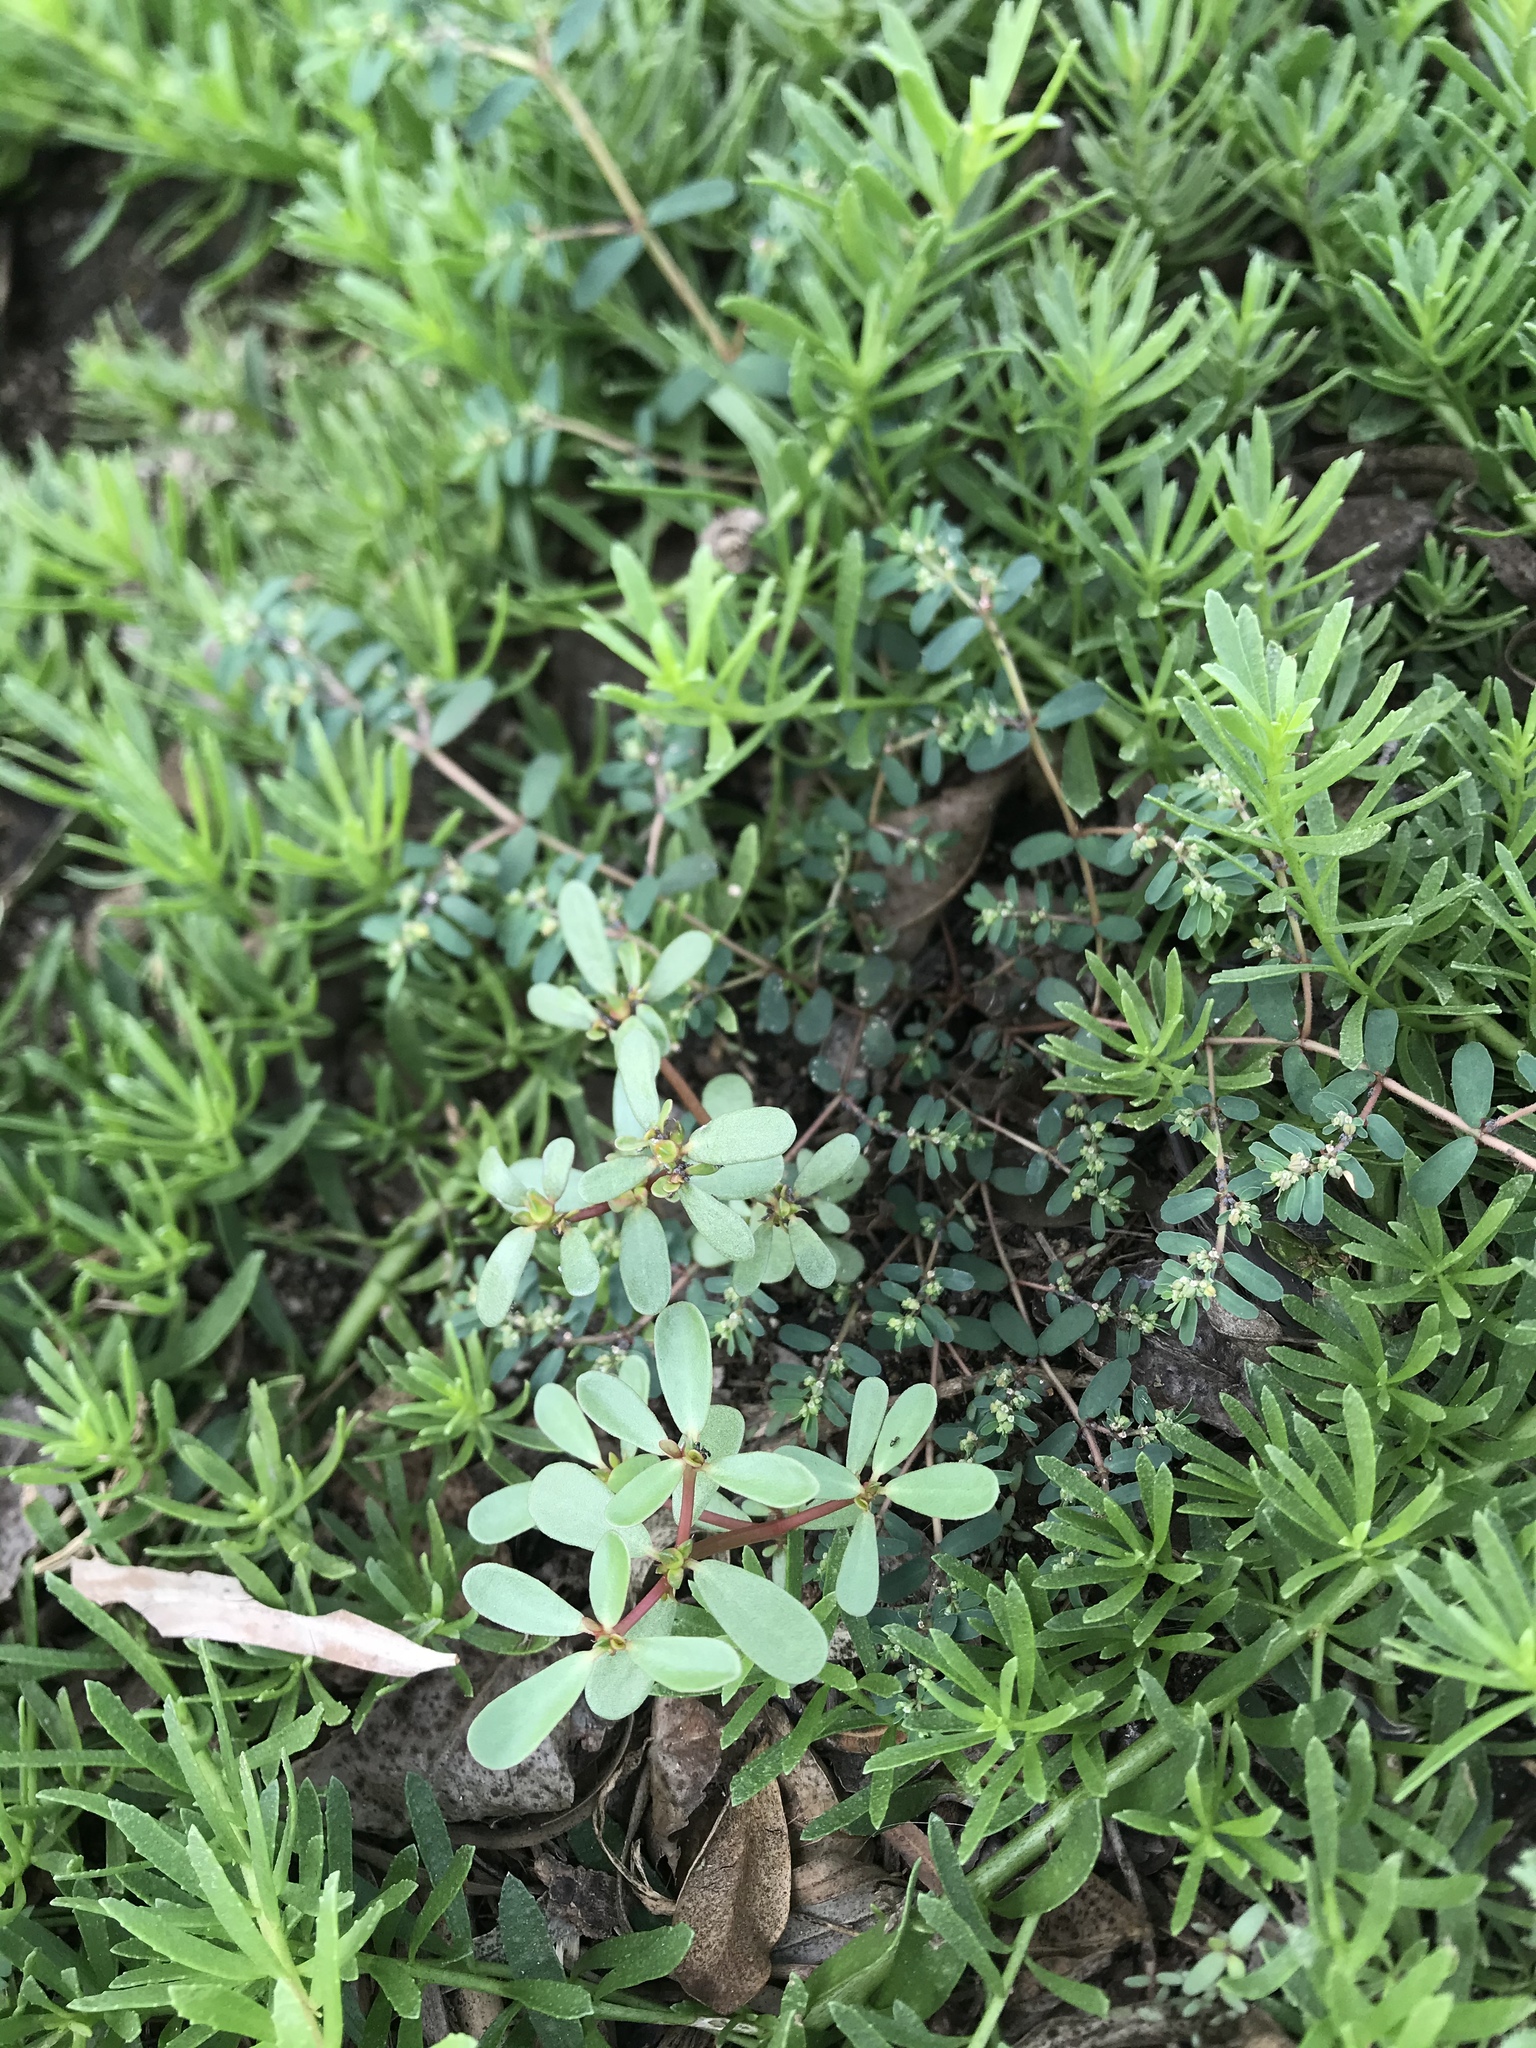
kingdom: Plantae
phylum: Tracheophyta
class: Magnoliopsida
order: Caryophyllales
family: Portulacaceae
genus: Portulaca
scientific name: Portulaca oleracea
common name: Common purslane
